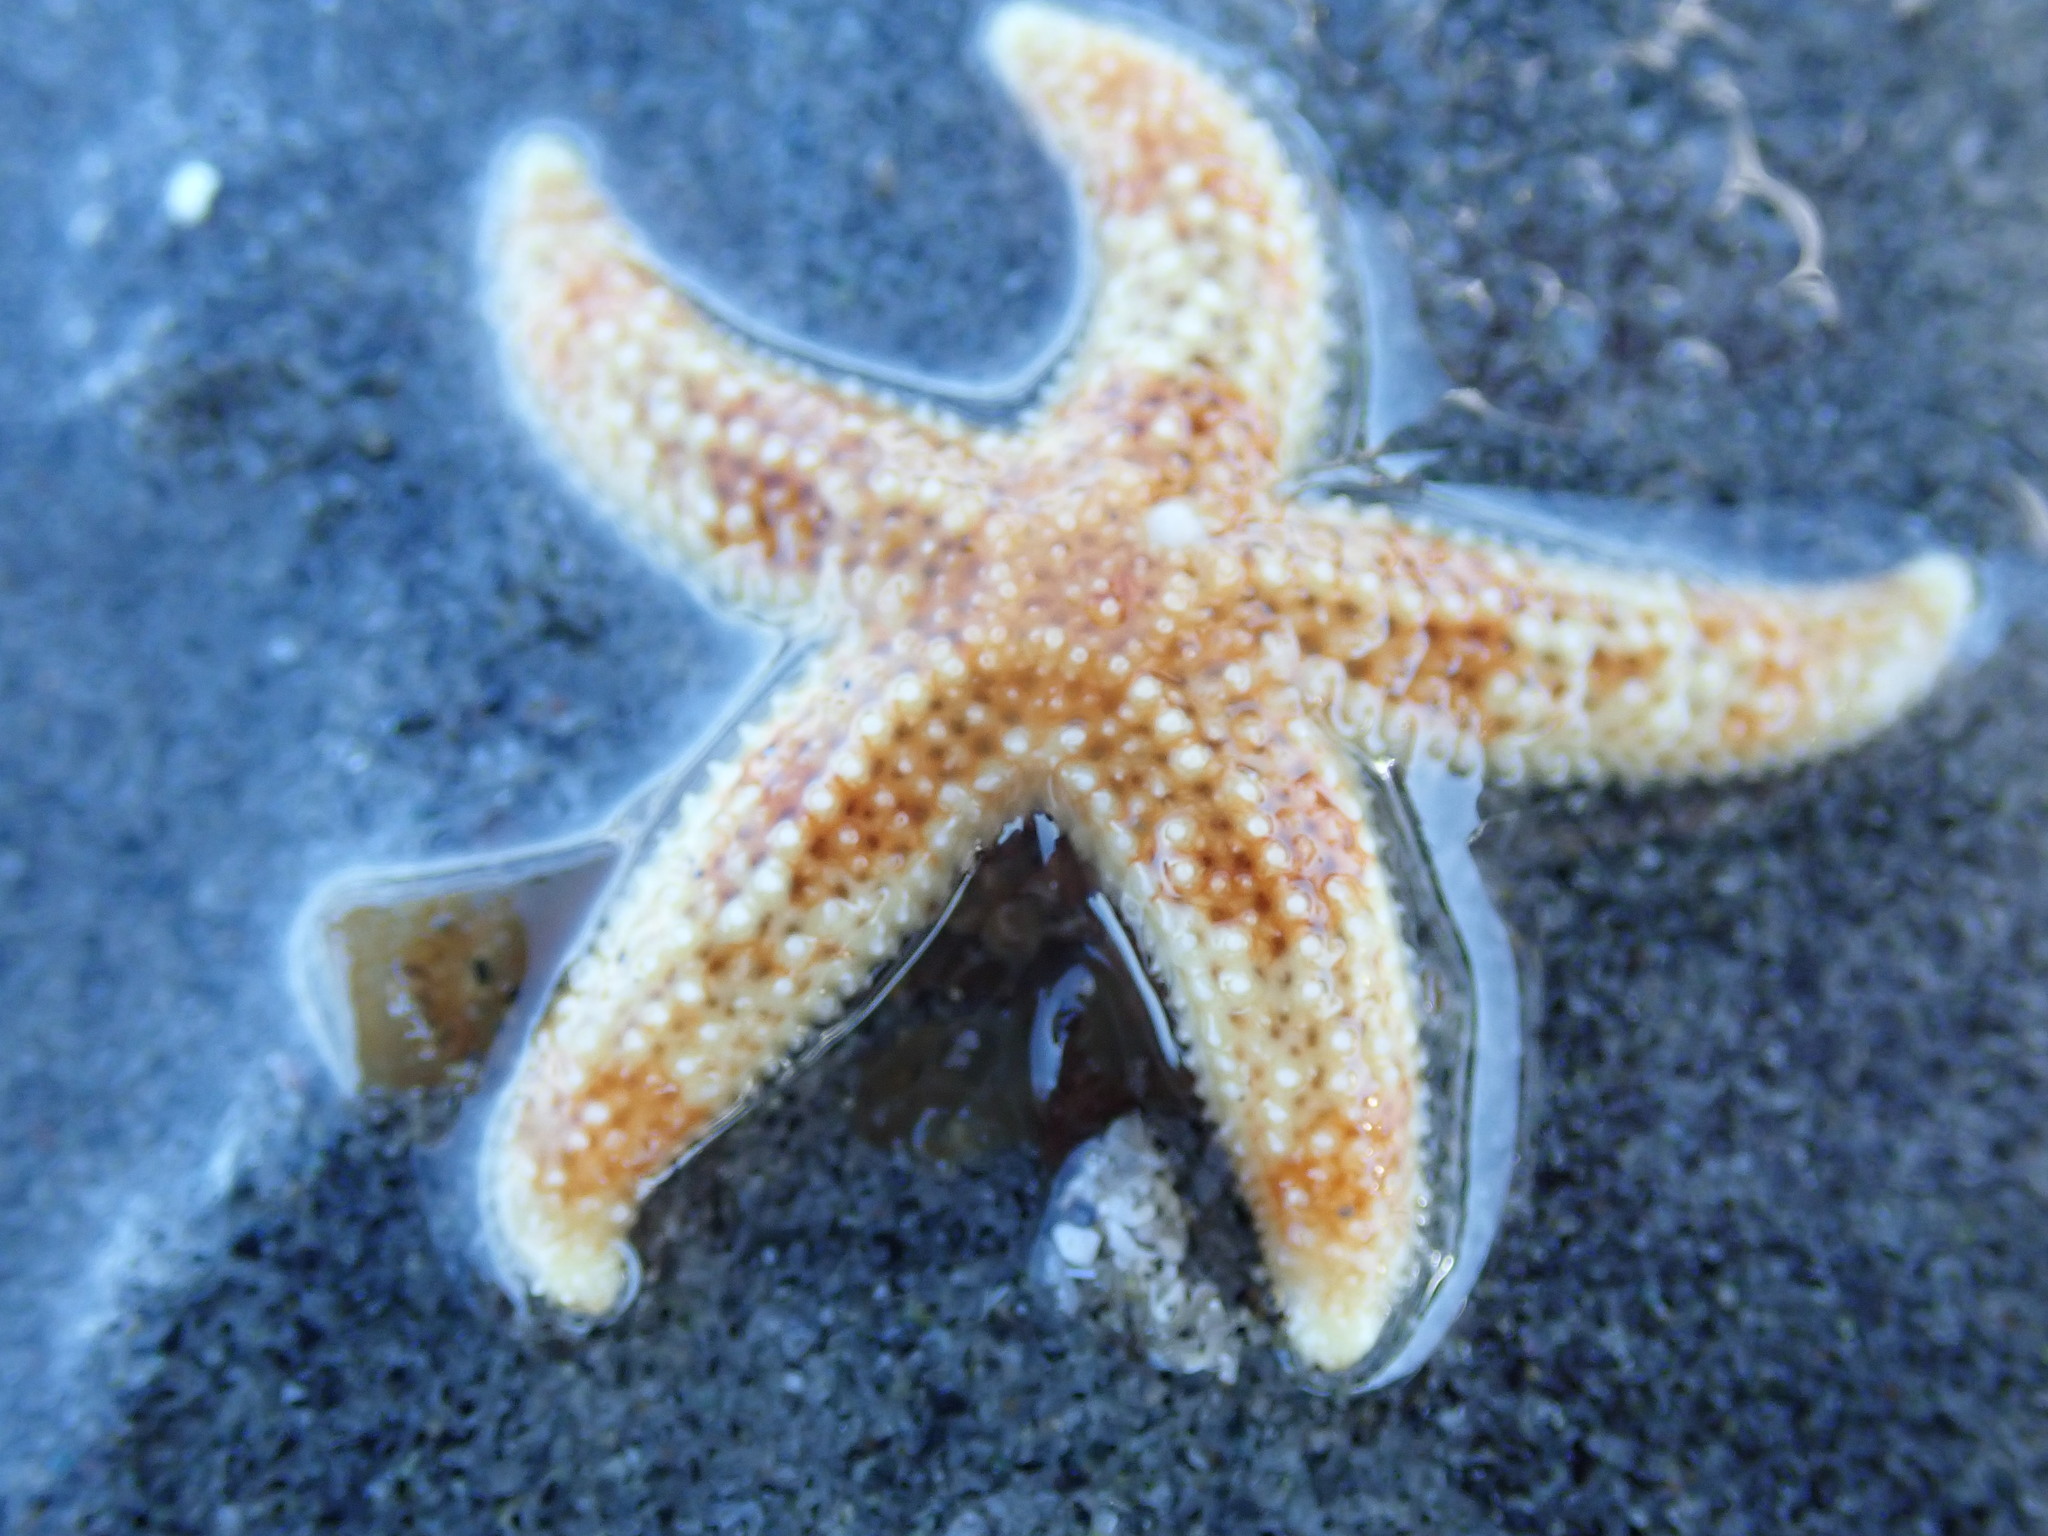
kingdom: Animalia
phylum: Echinodermata
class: Asteroidea
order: Forcipulatida
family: Asteriidae
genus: Evasterias
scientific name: Evasterias troschelii
